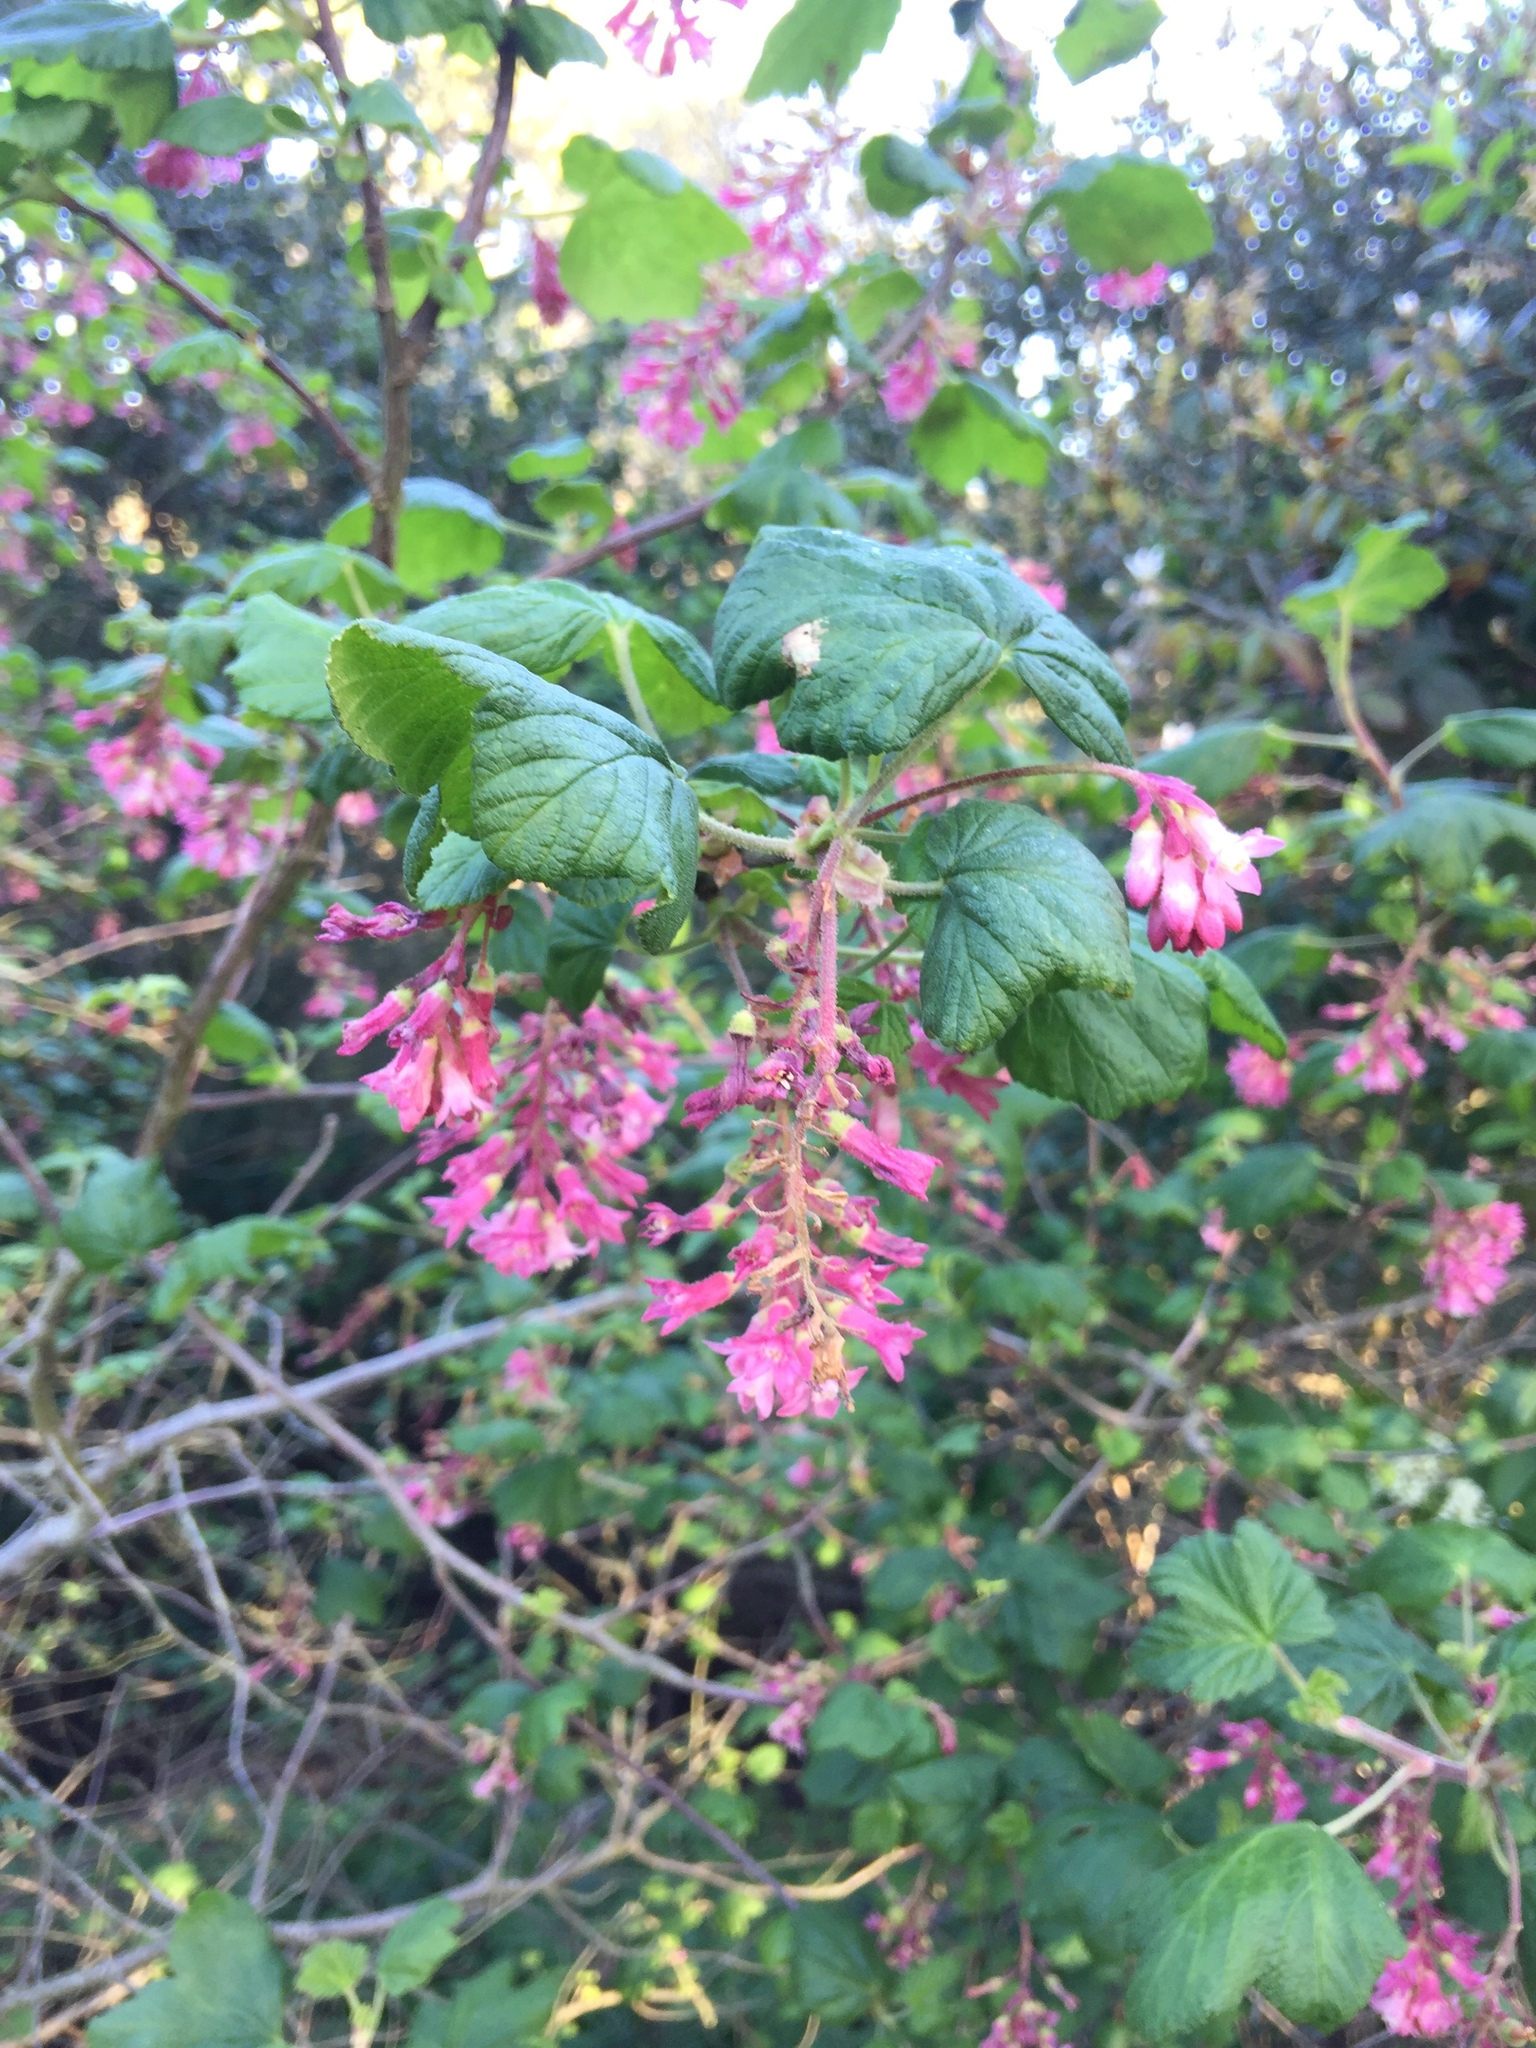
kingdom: Plantae
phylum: Tracheophyta
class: Magnoliopsida
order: Saxifragales
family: Grossulariaceae
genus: Ribes
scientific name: Ribes sanguineum
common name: Flowering currant
